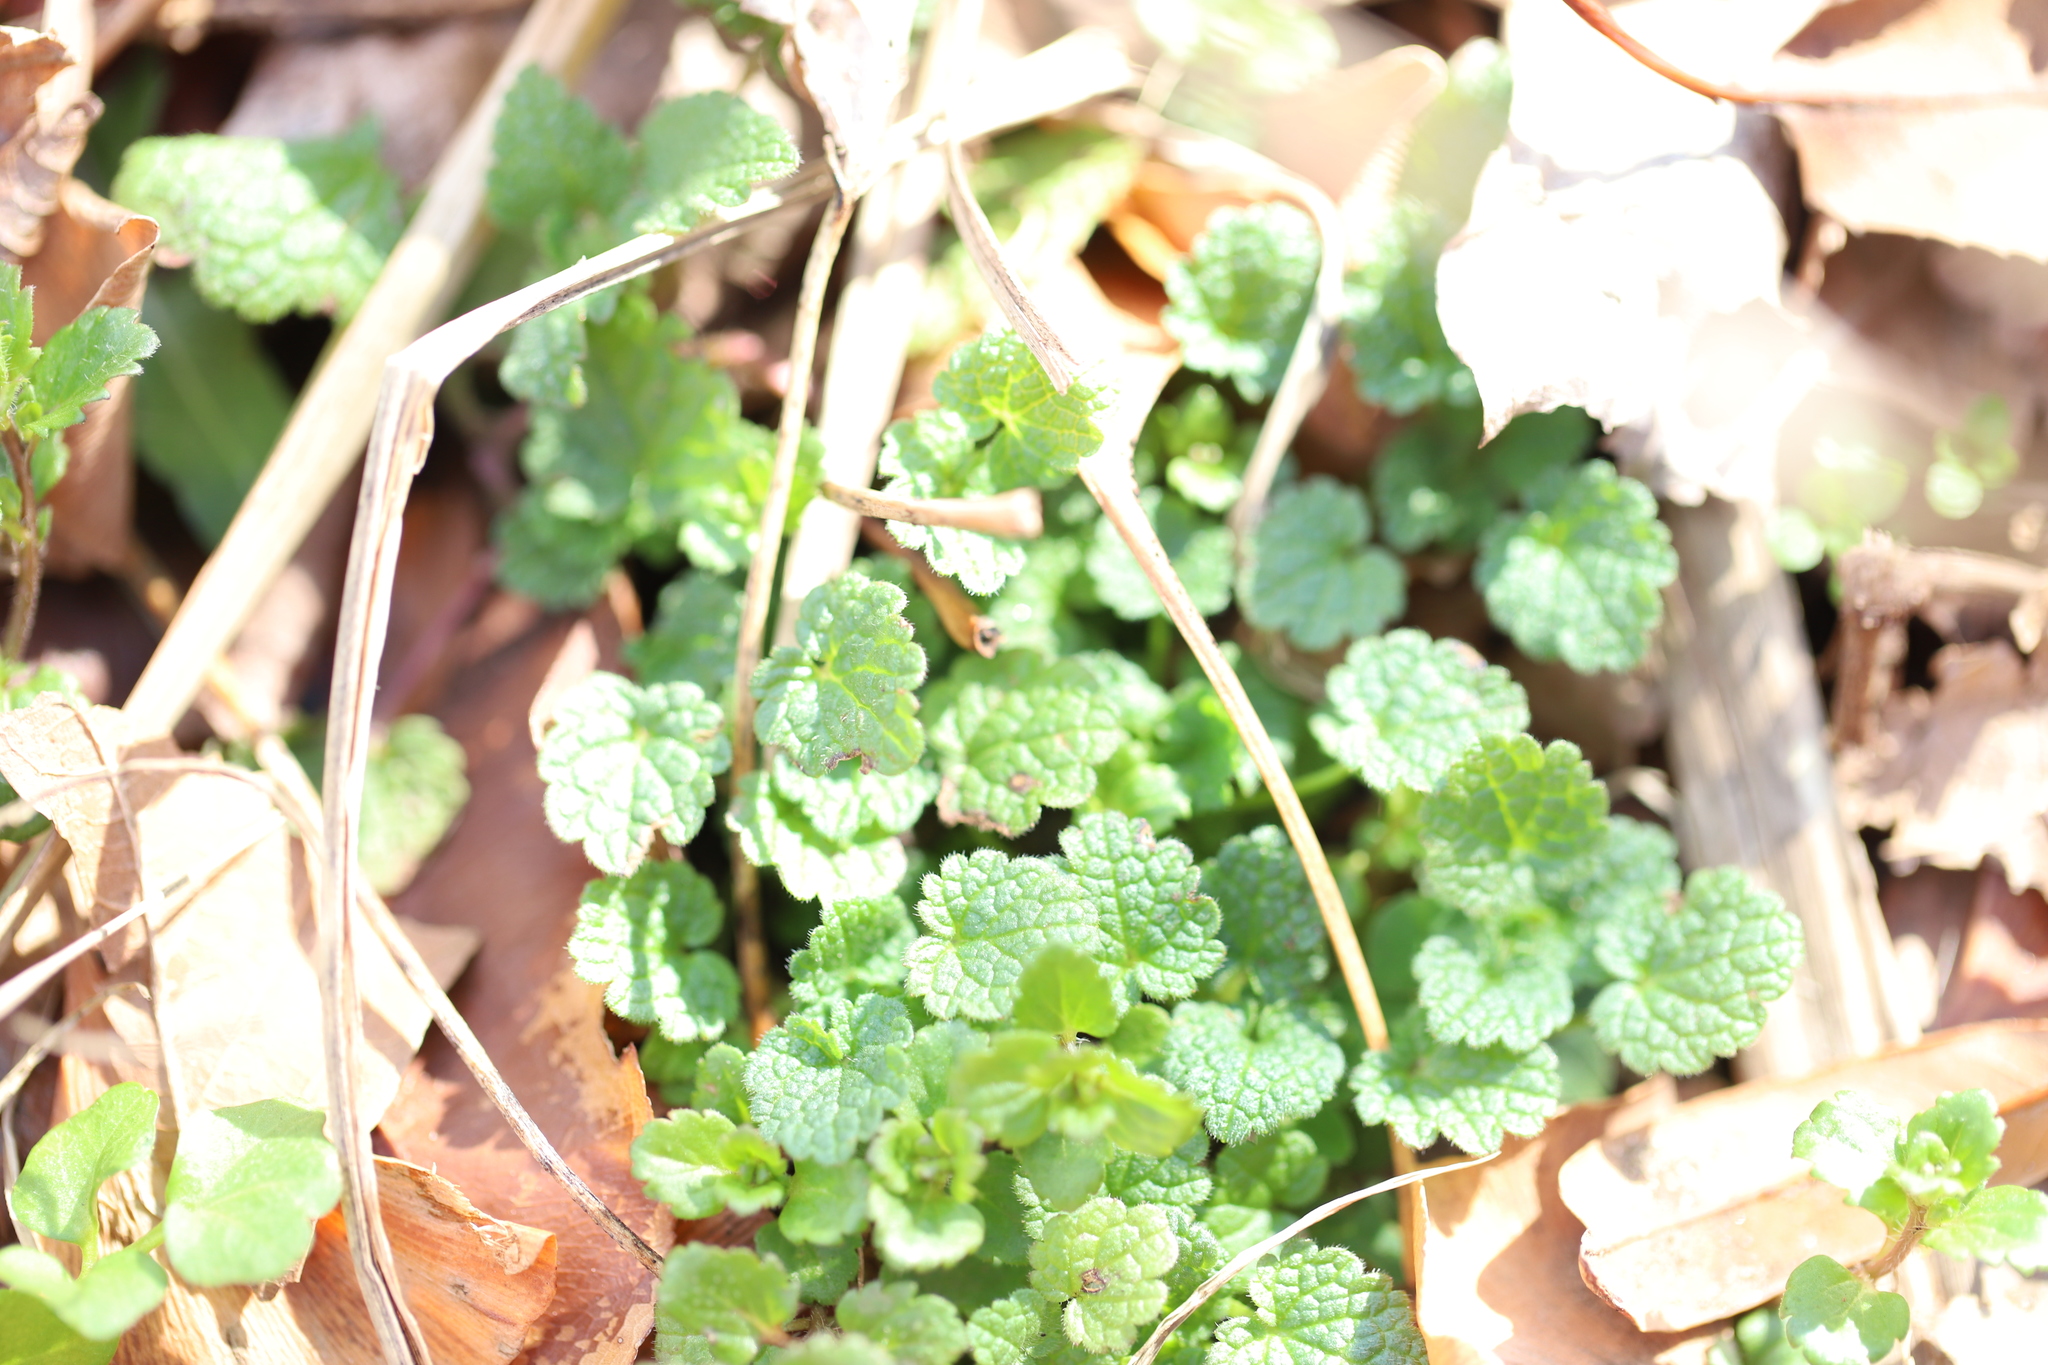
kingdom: Plantae
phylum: Tracheophyta
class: Magnoliopsida
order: Lamiales
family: Lamiaceae
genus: Lamium
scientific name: Lamium purpureum
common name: Red dead-nettle
